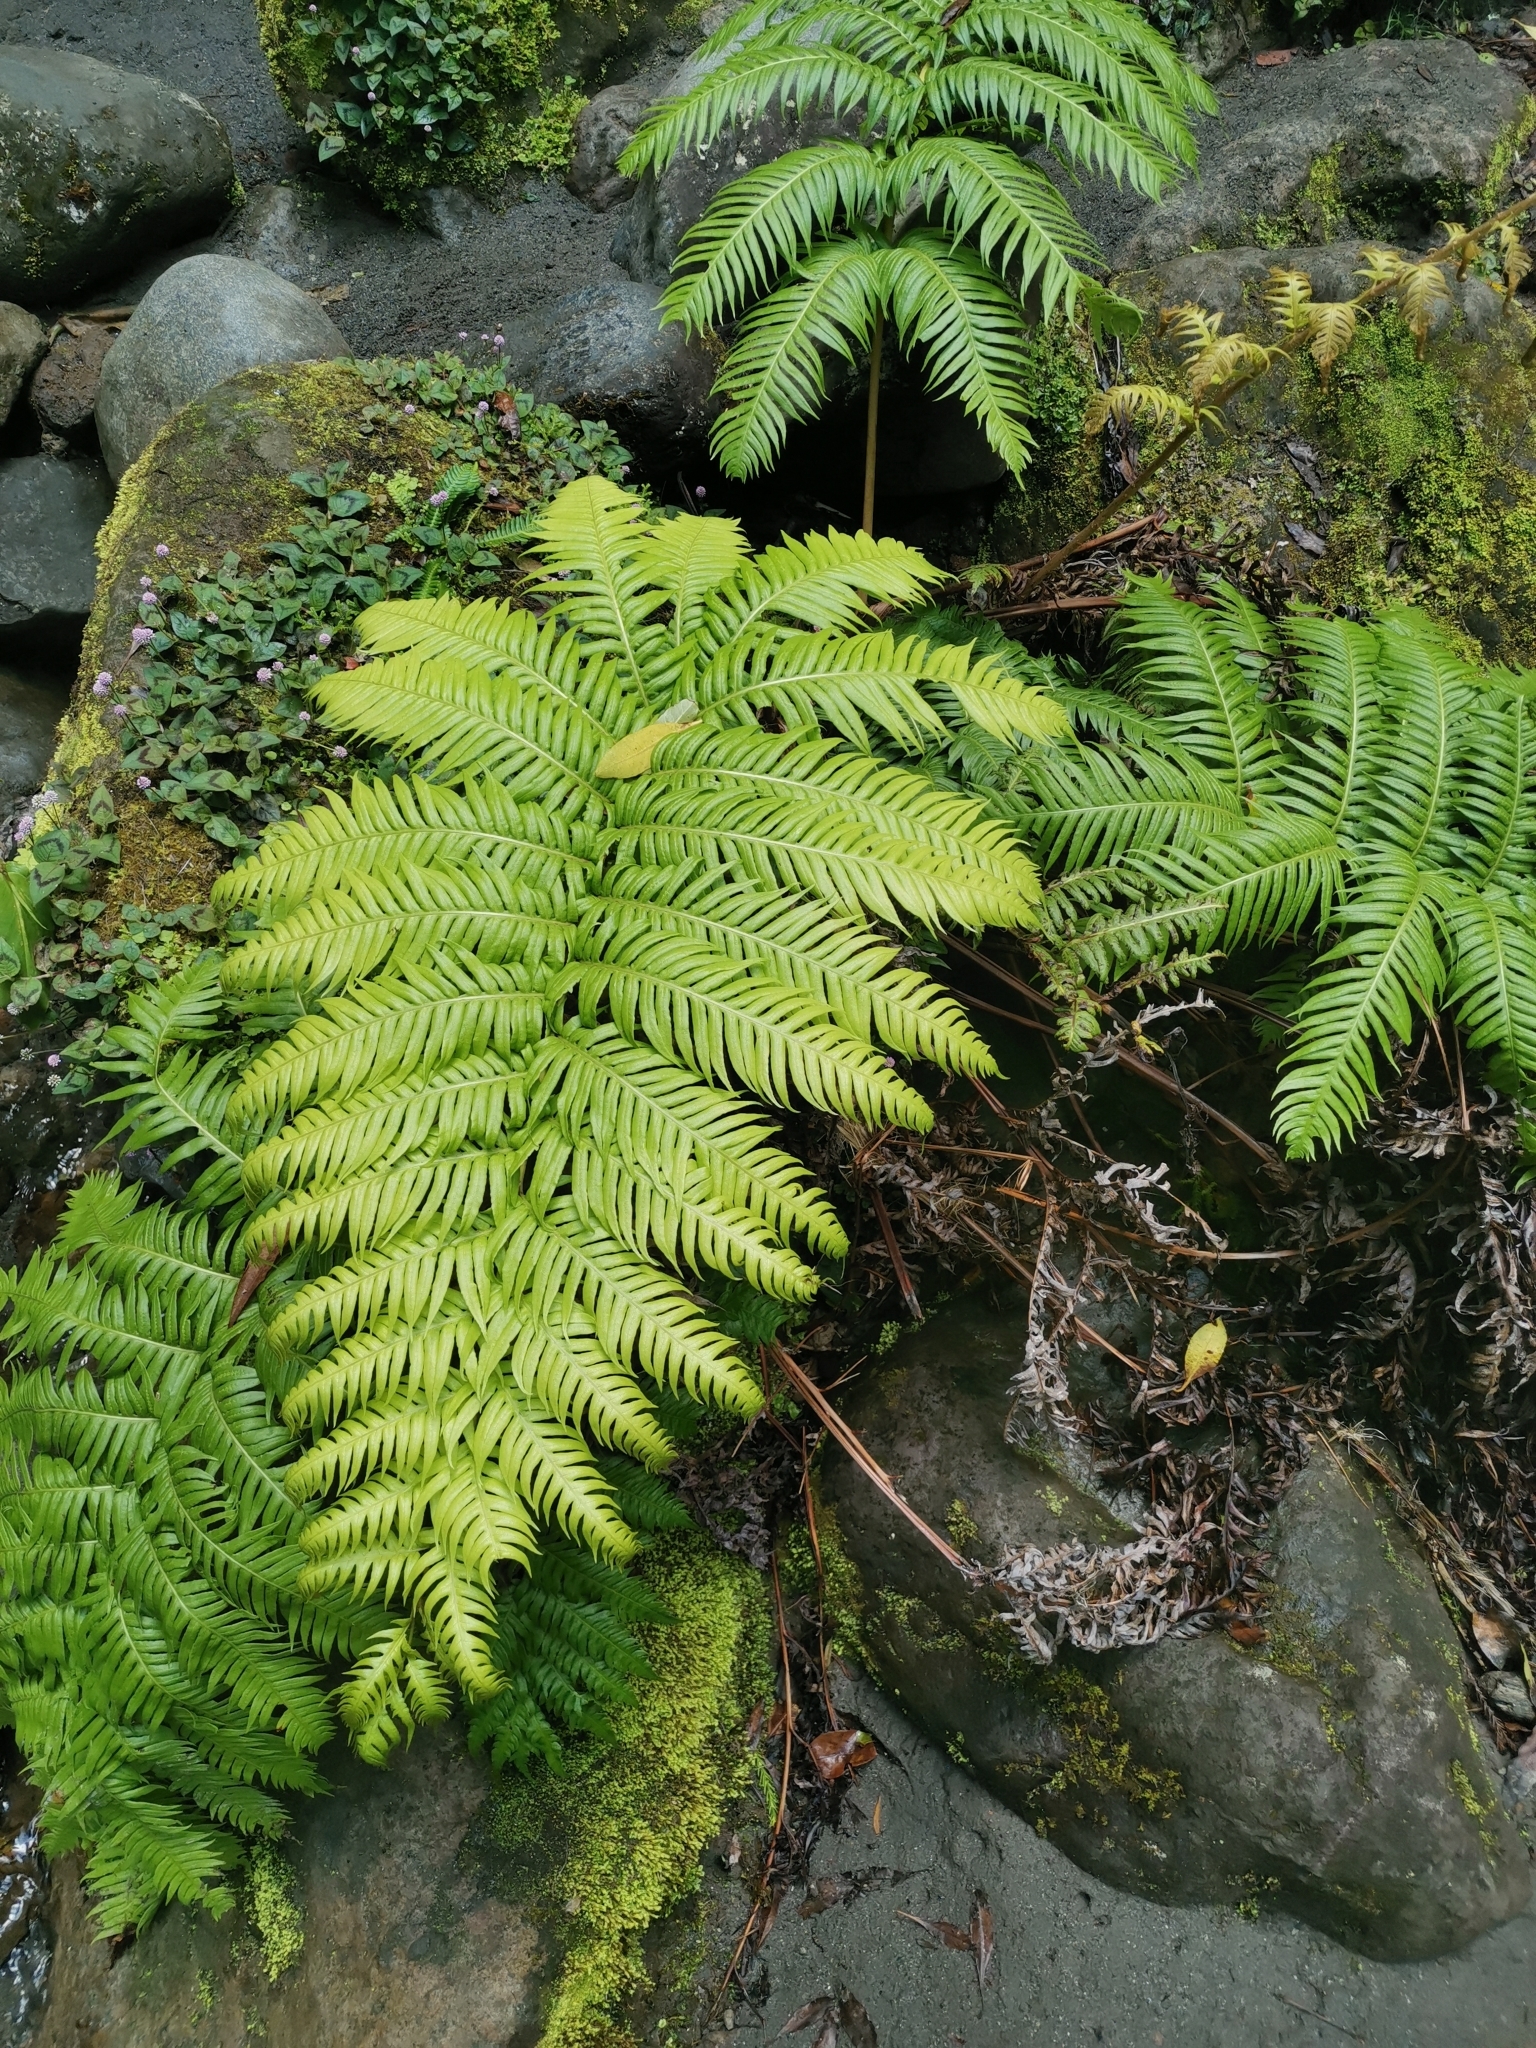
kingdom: Plantae
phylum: Tracheophyta
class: Polypodiopsida
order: Polypodiales
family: Blechnaceae
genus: Woodwardia
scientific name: Woodwardia radicans
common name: Rooting chainfern
